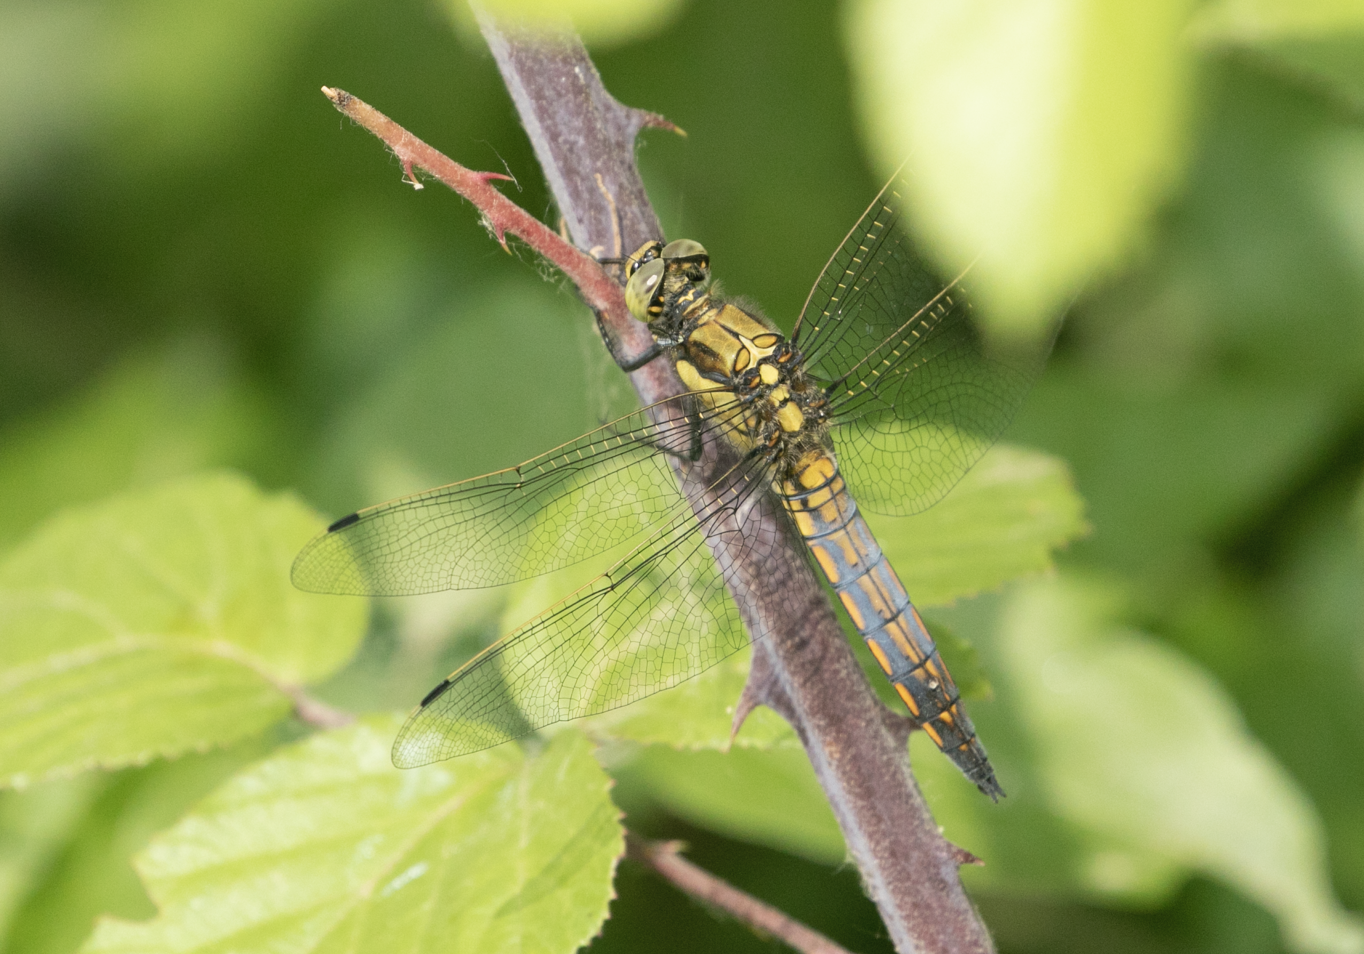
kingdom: Animalia
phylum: Arthropoda
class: Insecta
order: Odonata
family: Libellulidae
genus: Orthetrum
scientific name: Orthetrum cancellatum
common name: Black-tailed skimmer
